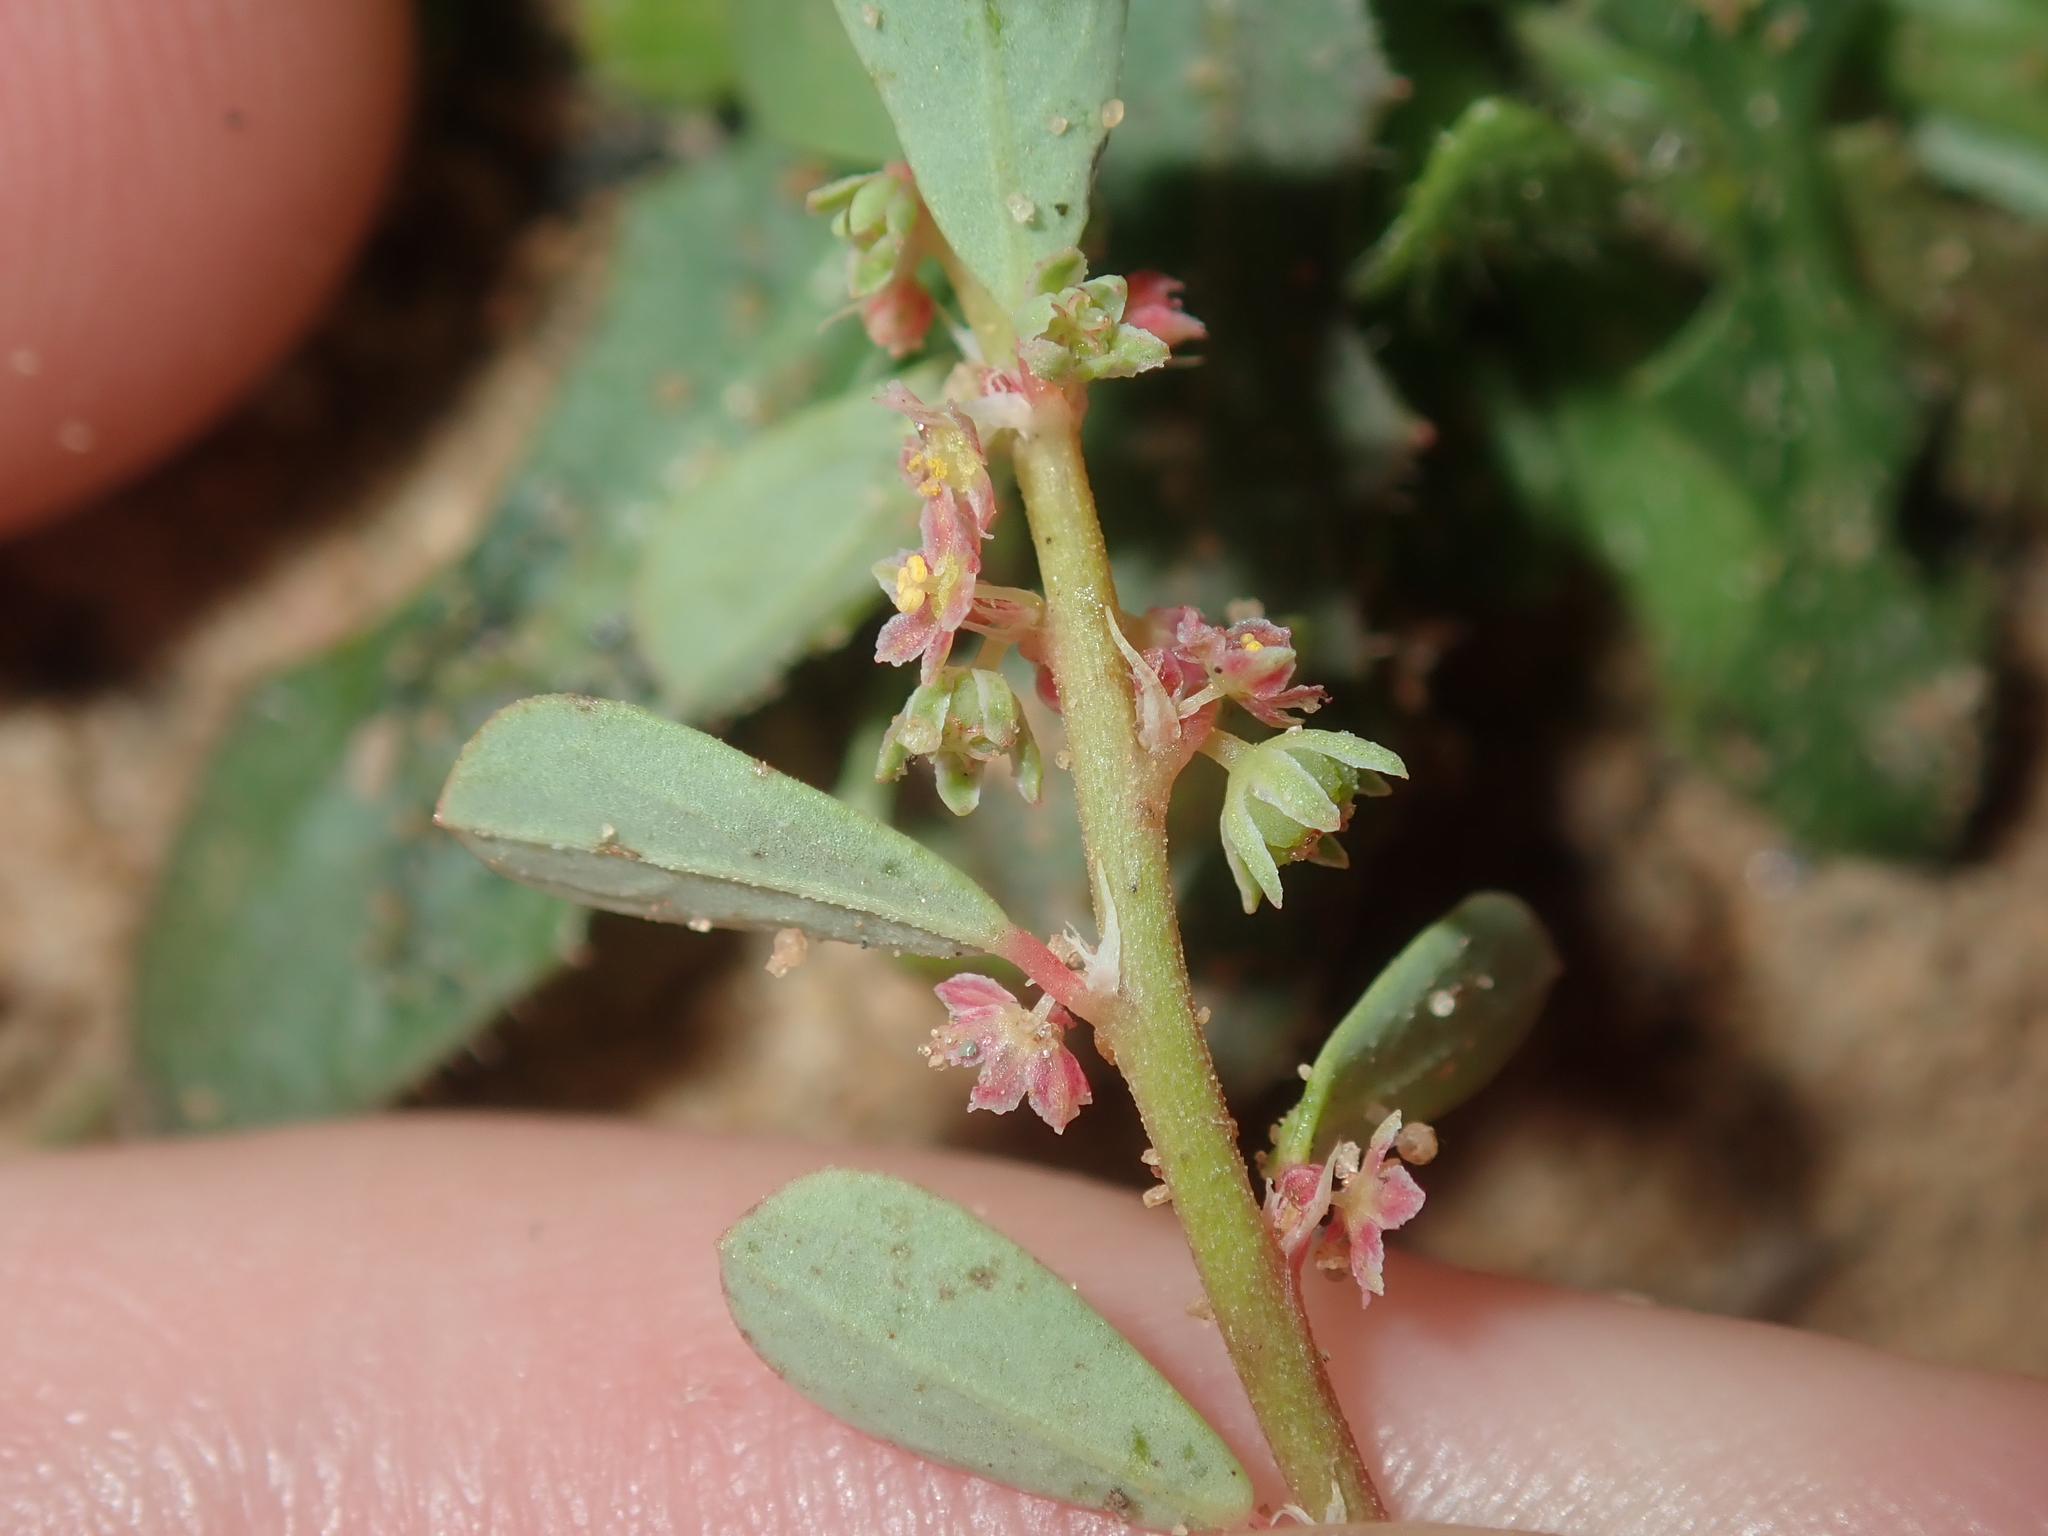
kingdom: Plantae
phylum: Tracheophyta
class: Magnoliopsida
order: Malpighiales
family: Phyllanthaceae
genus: Phyllanthus
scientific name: Phyllanthus erwinii
